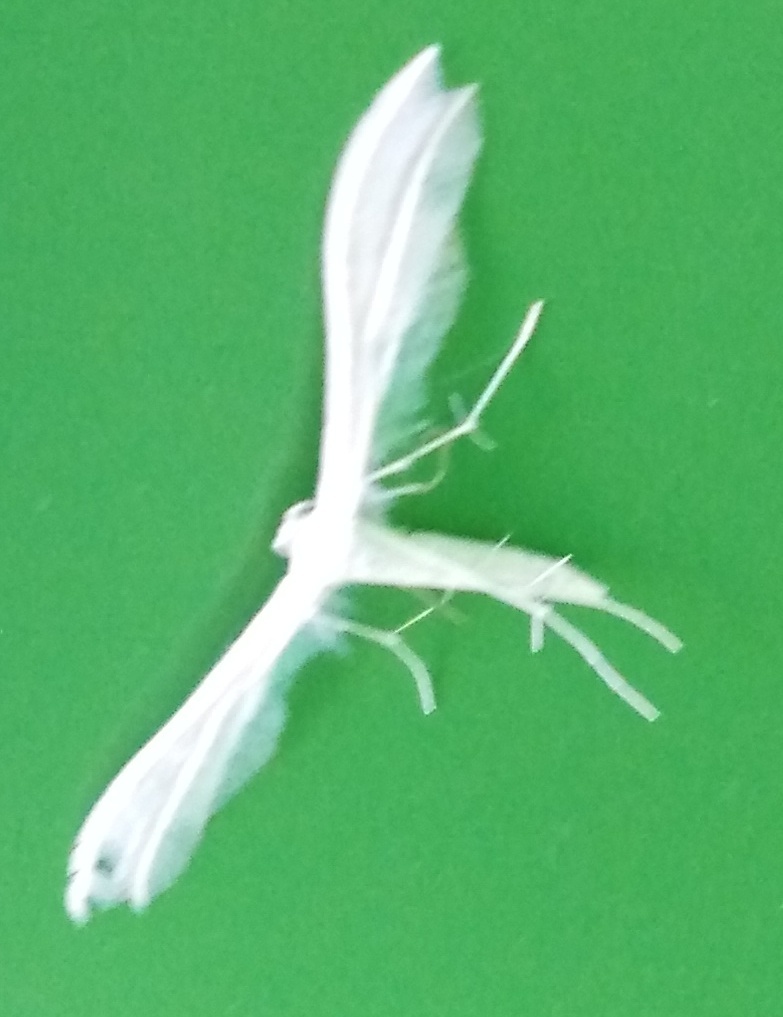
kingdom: Animalia
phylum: Arthropoda
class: Insecta
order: Lepidoptera
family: Pterophoridae
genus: Pterophorus
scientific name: Pterophorus pentadactyla
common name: White plume moth
